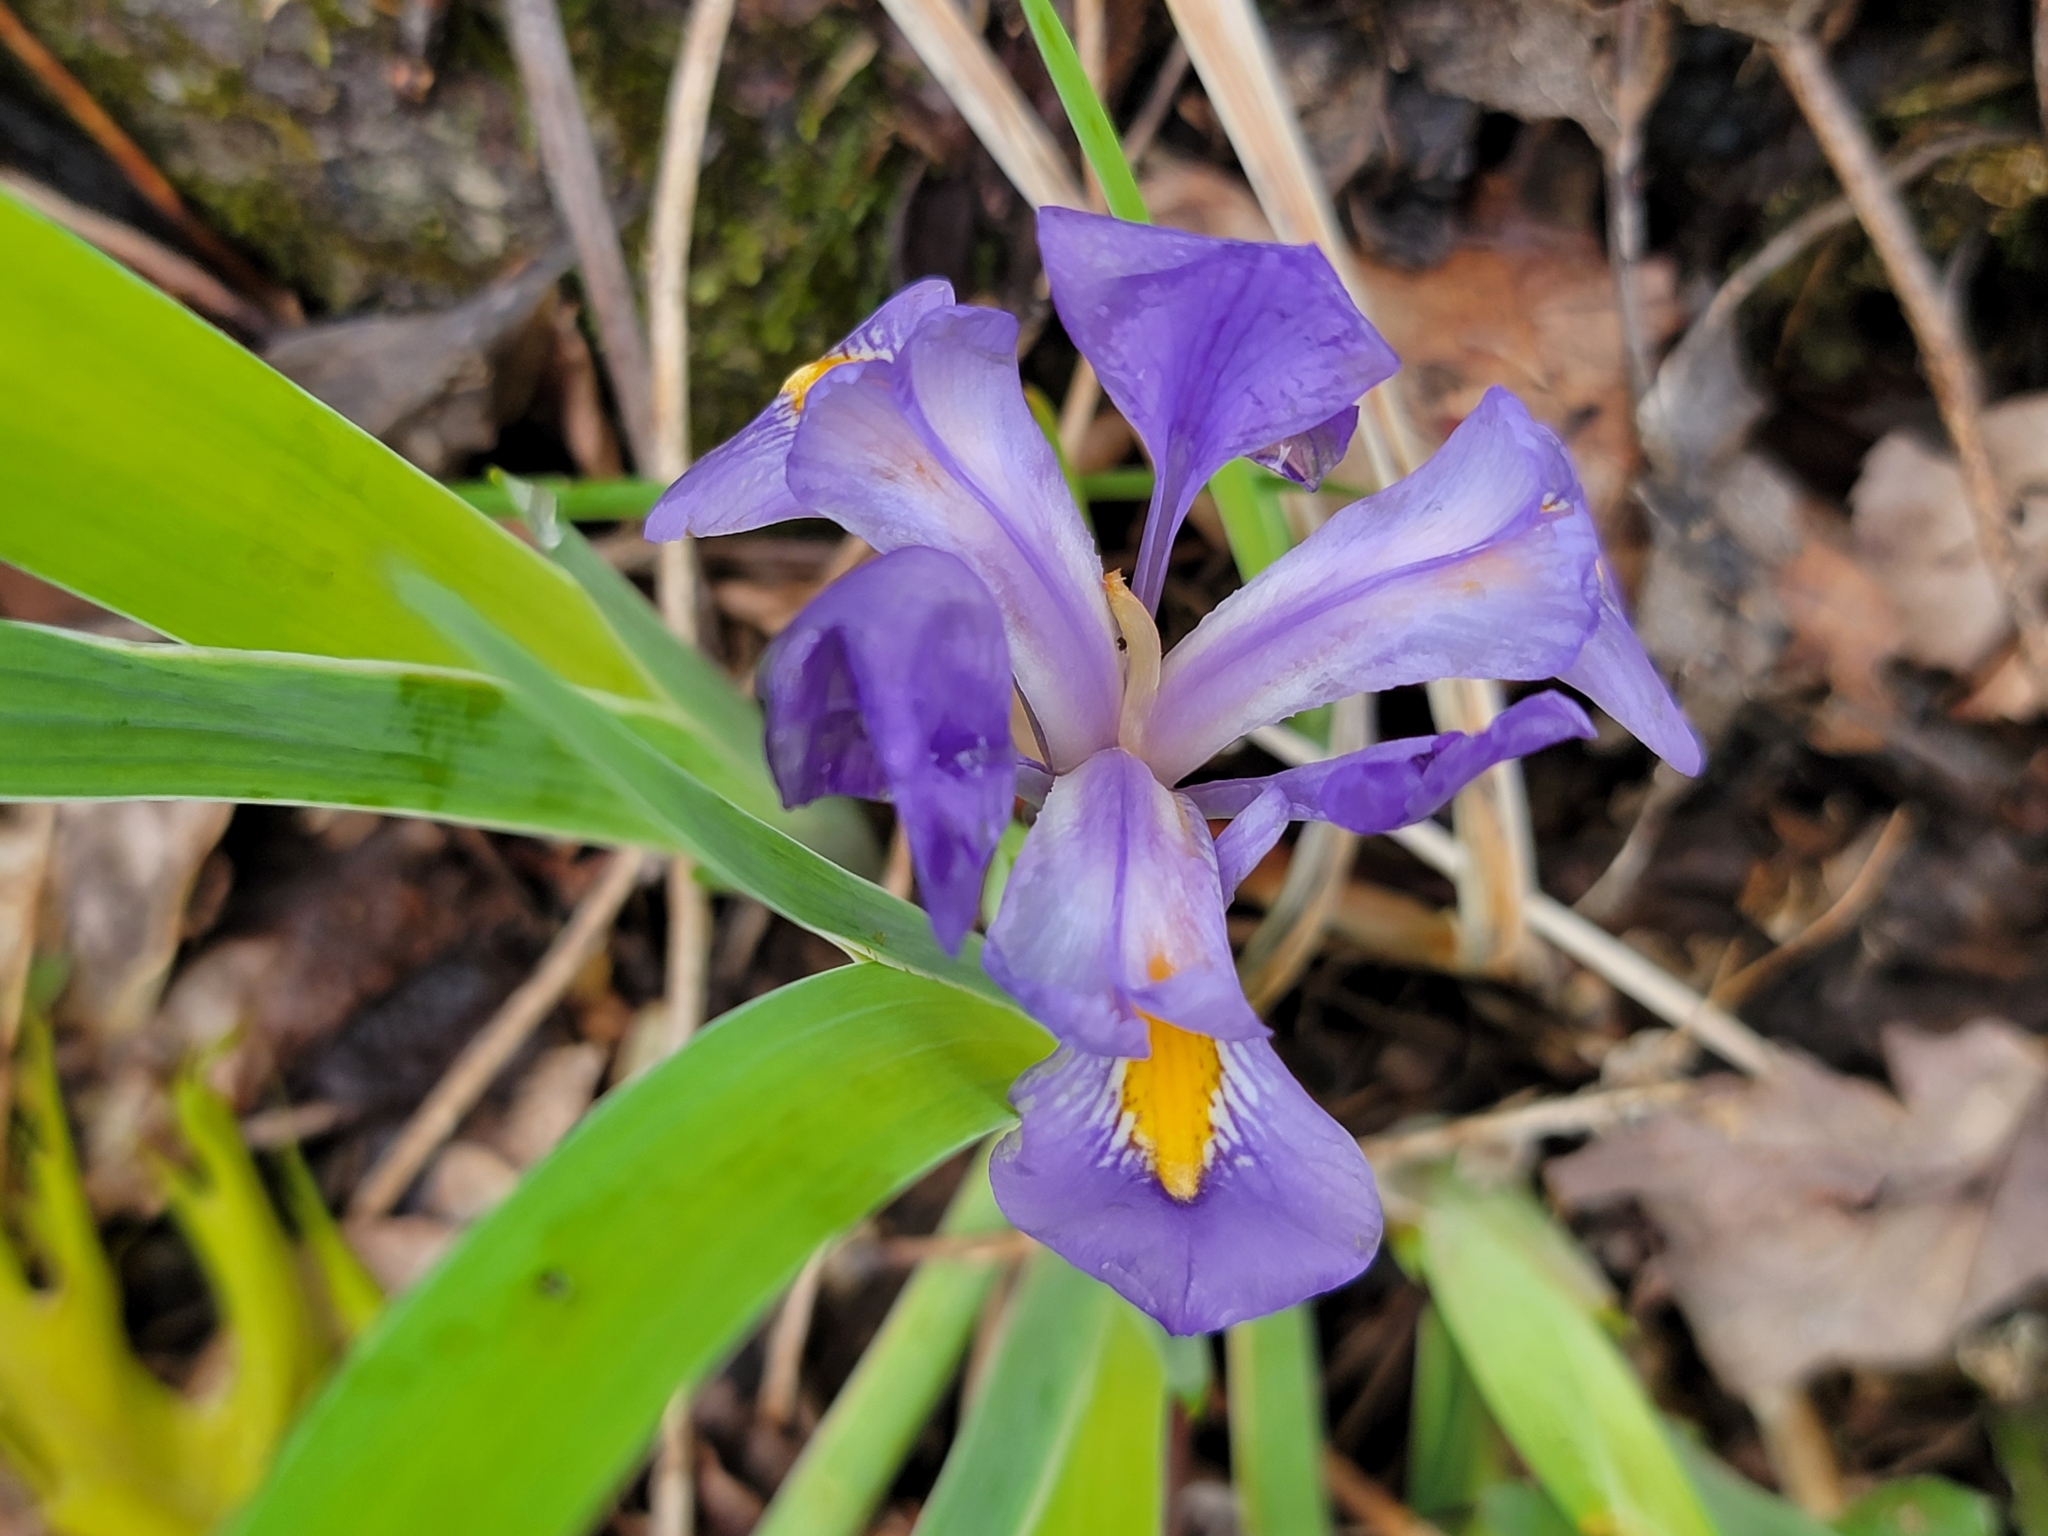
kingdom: Plantae
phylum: Tracheophyta
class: Liliopsida
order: Asparagales
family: Iridaceae
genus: Iris
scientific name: Iris verna
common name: Dwarf iris
